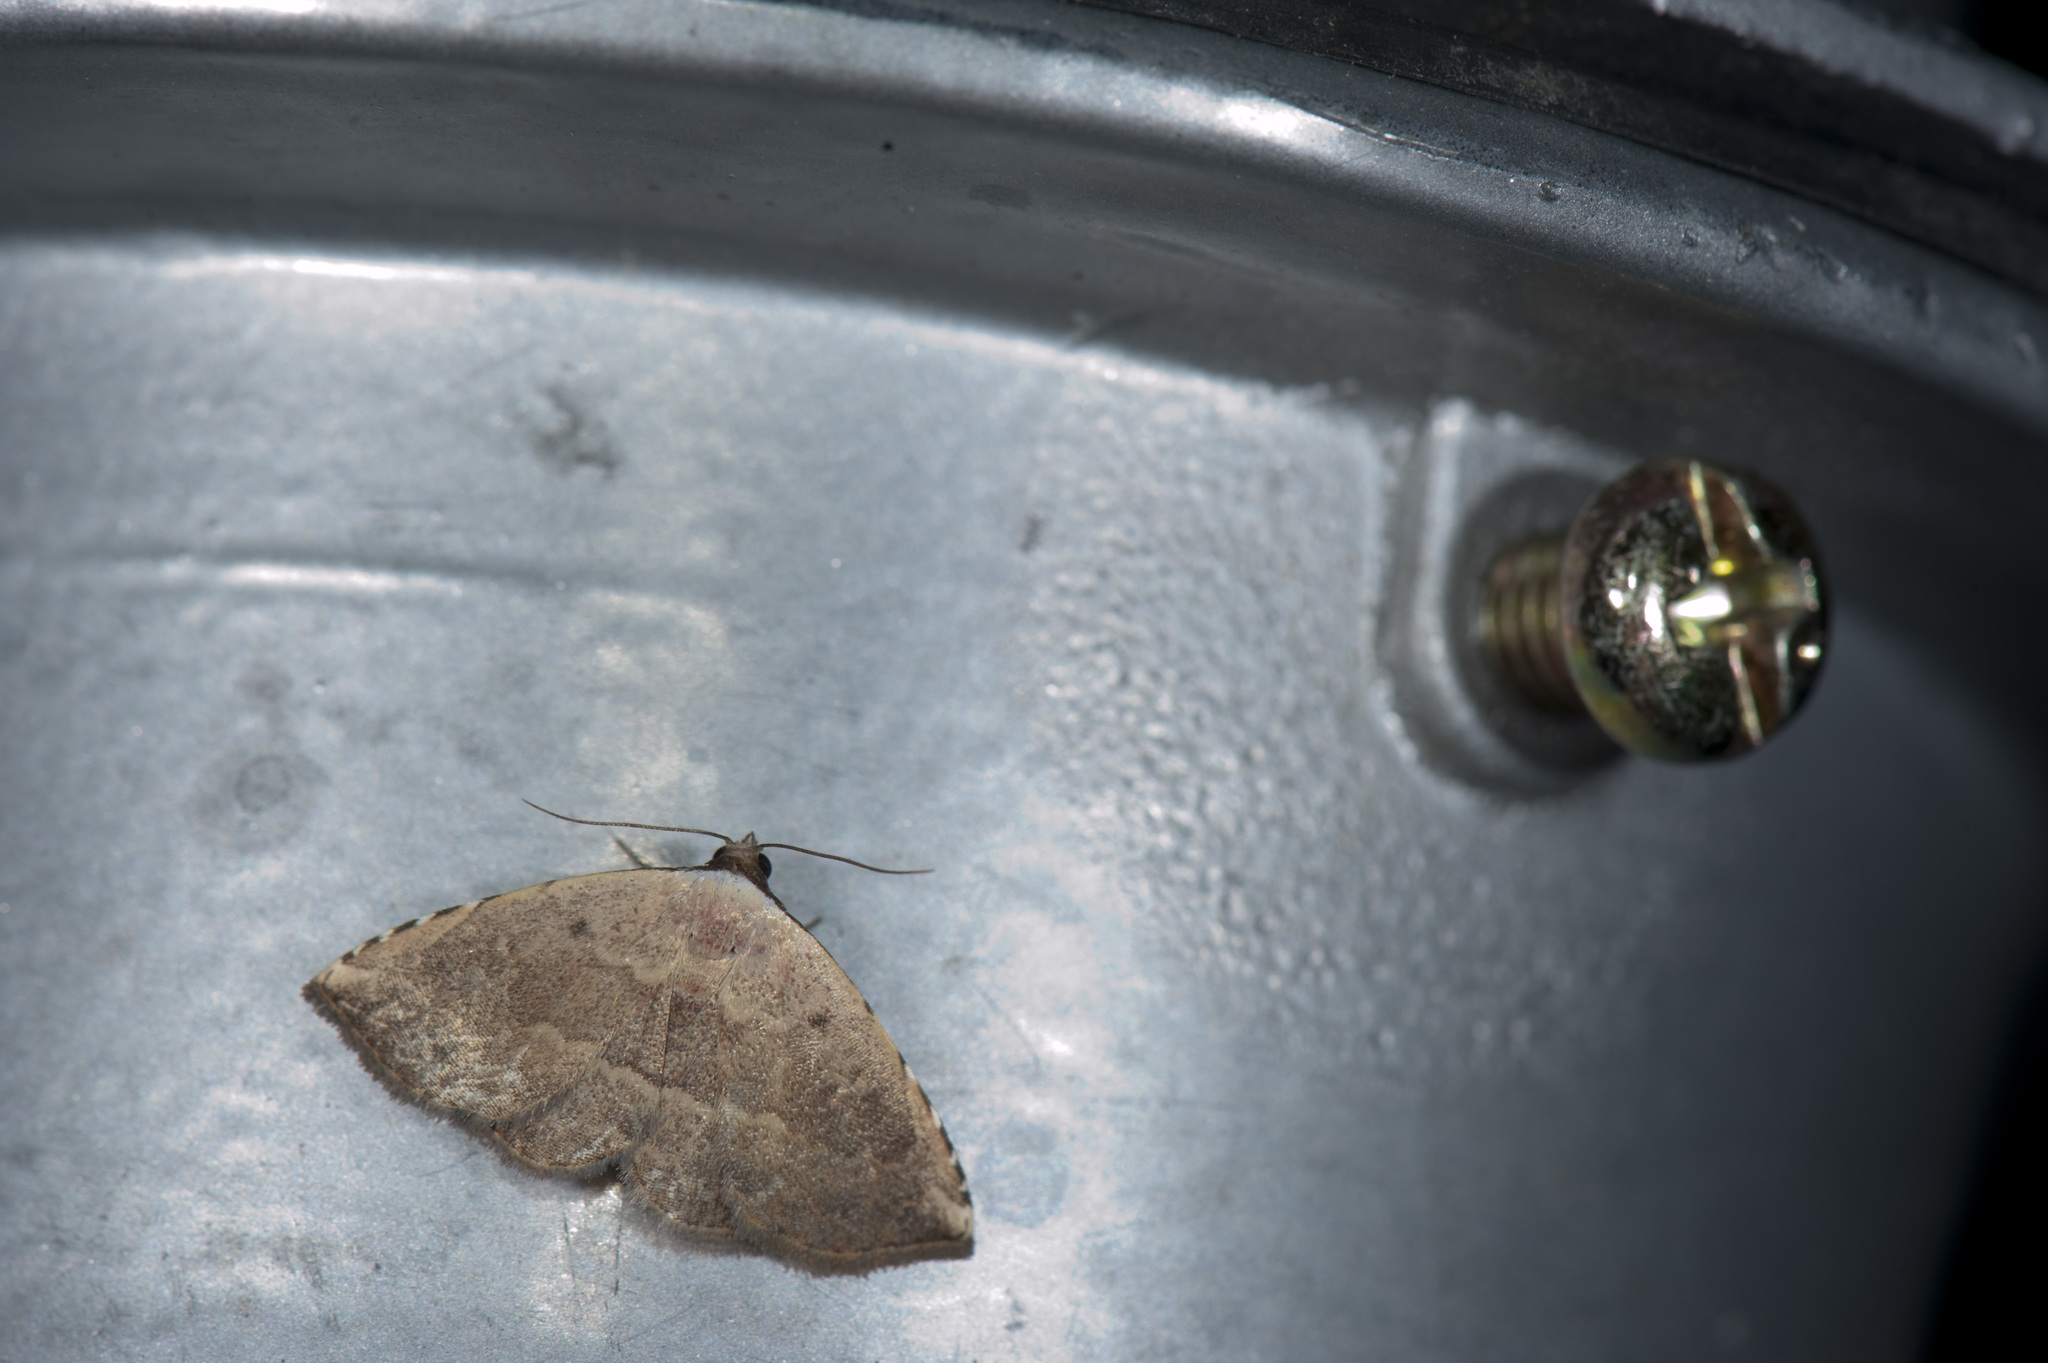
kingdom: Animalia
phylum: Arthropoda
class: Insecta
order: Lepidoptera
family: Noctuidae
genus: Autoba
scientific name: Autoba tristalis
